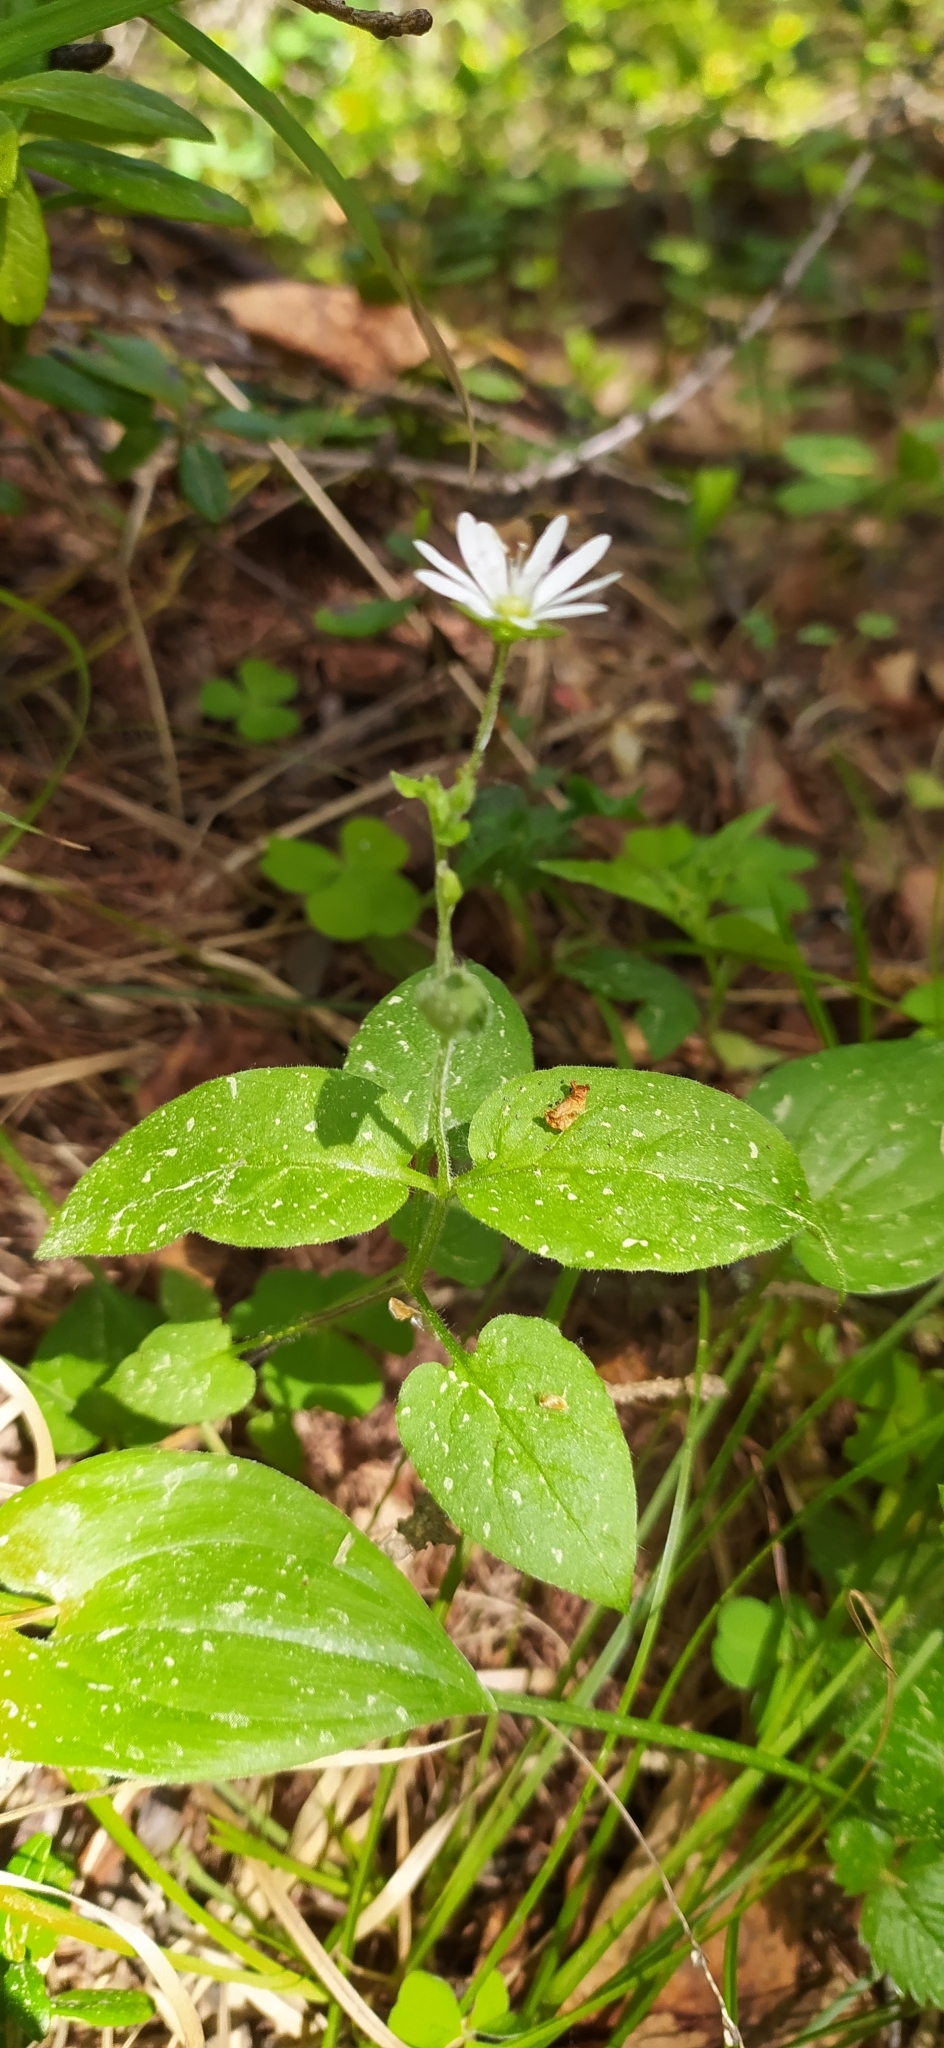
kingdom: Plantae
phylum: Tracheophyta
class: Magnoliopsida
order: Caryophyllales
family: Caryophyllaceae
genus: Stellaria
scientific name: Stellaria bungeana
